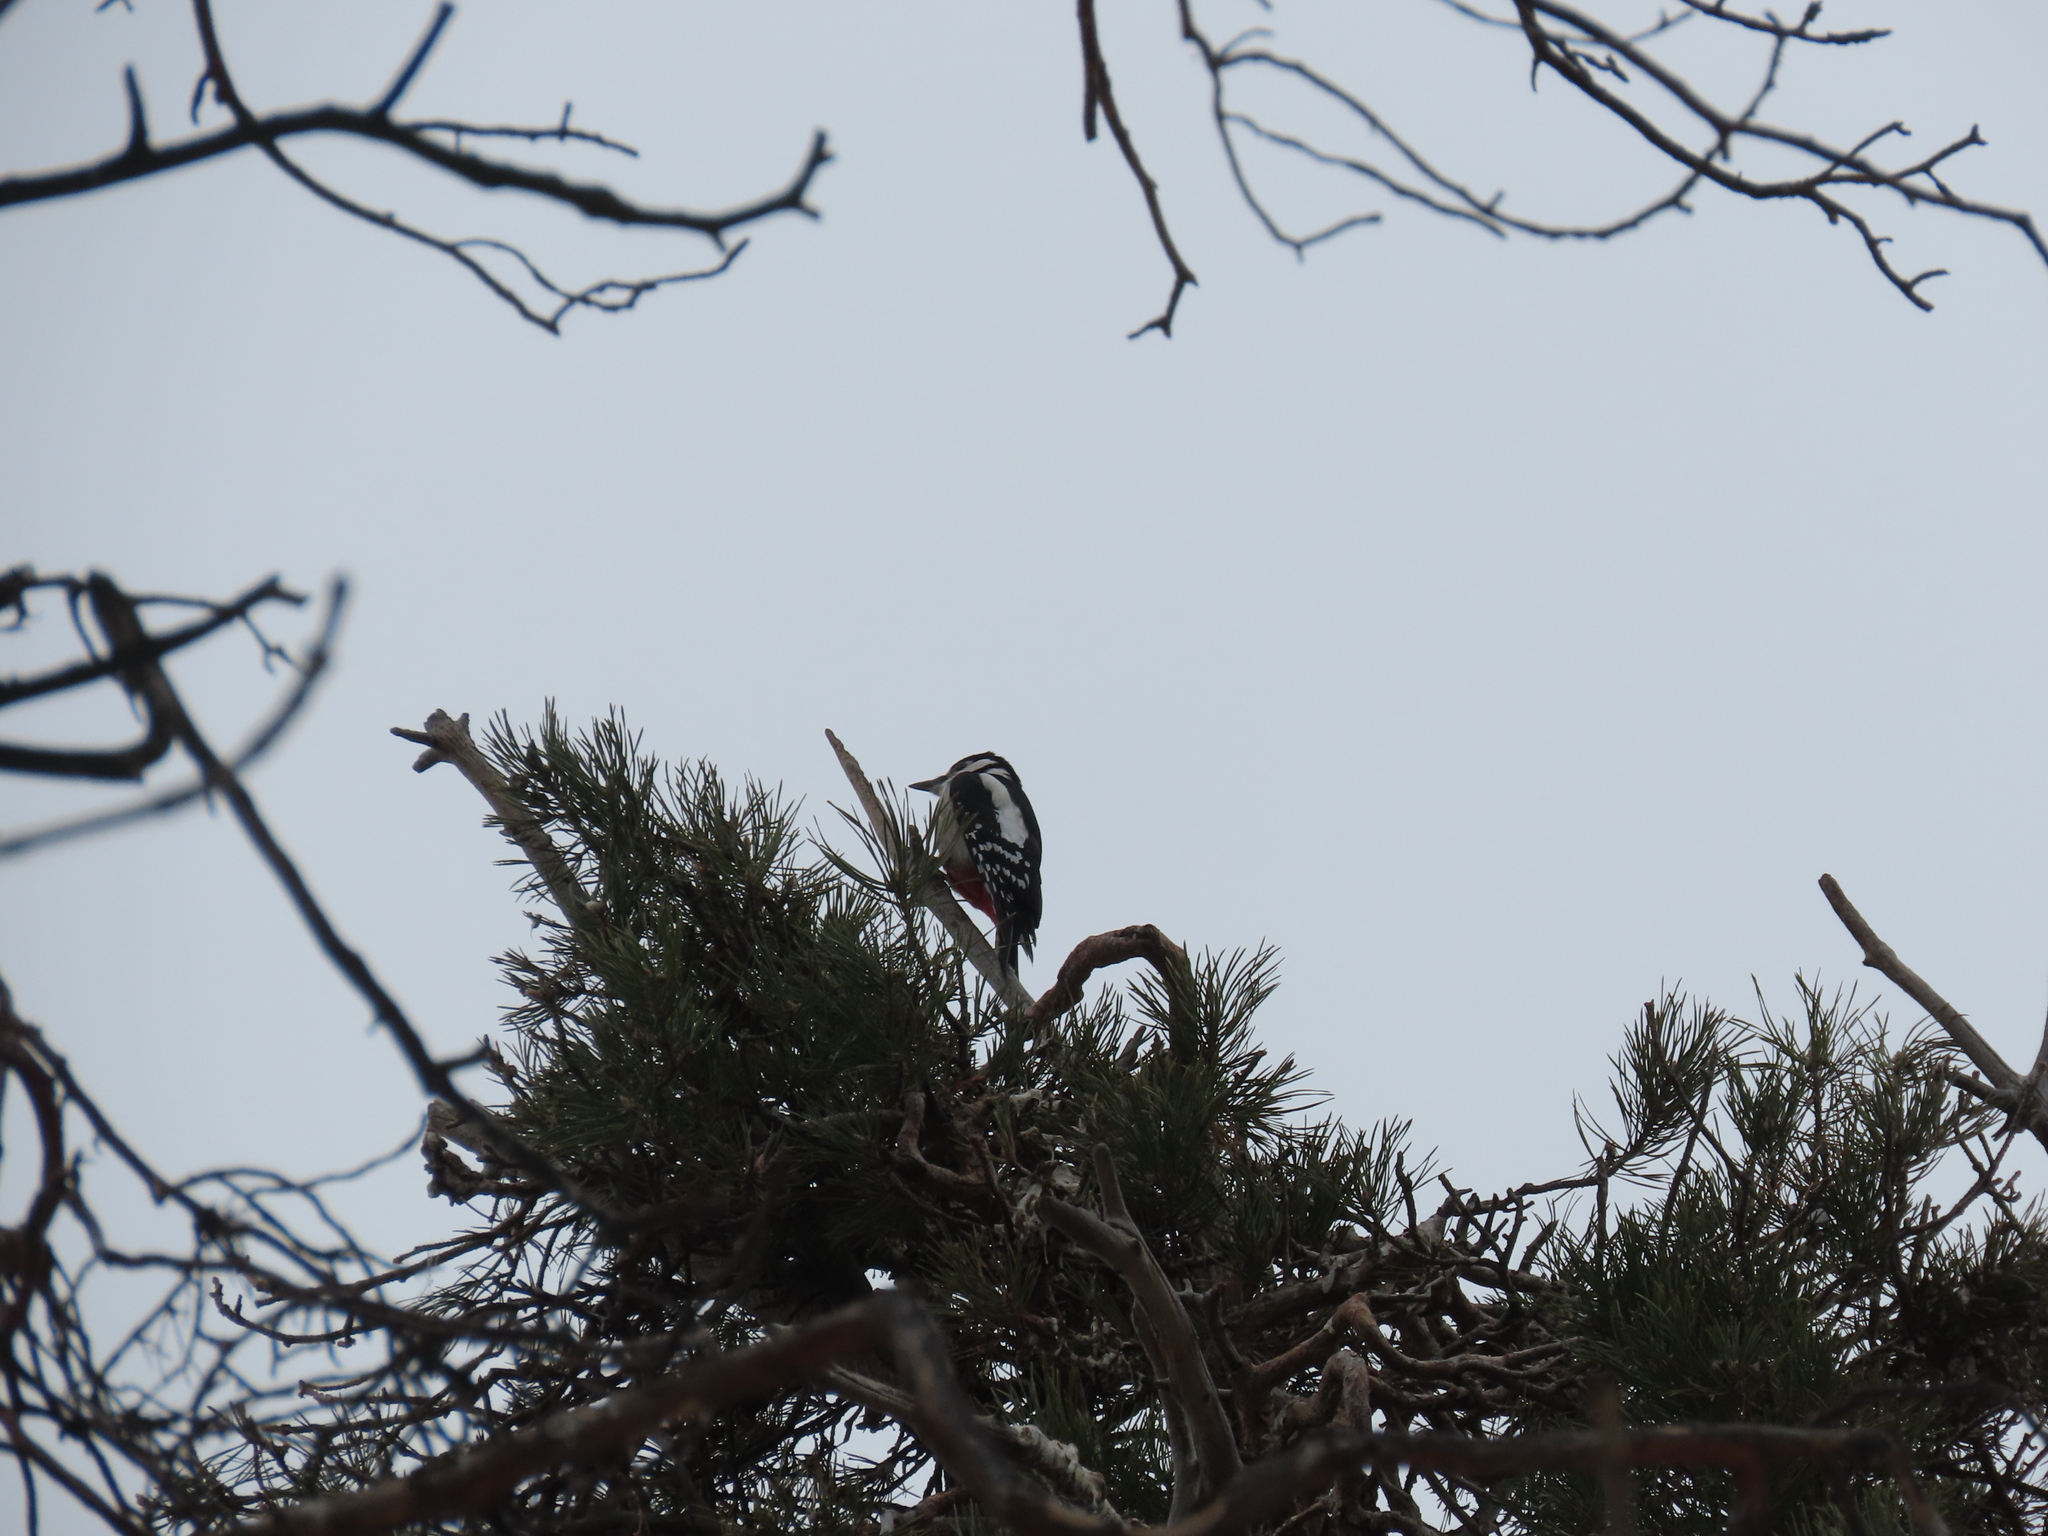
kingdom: Animalia
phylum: Chordata
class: Aves
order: Piciformes
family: Picidae
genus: Dendrocopos
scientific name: Dendrocopos major
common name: Great spotted woodpecker
